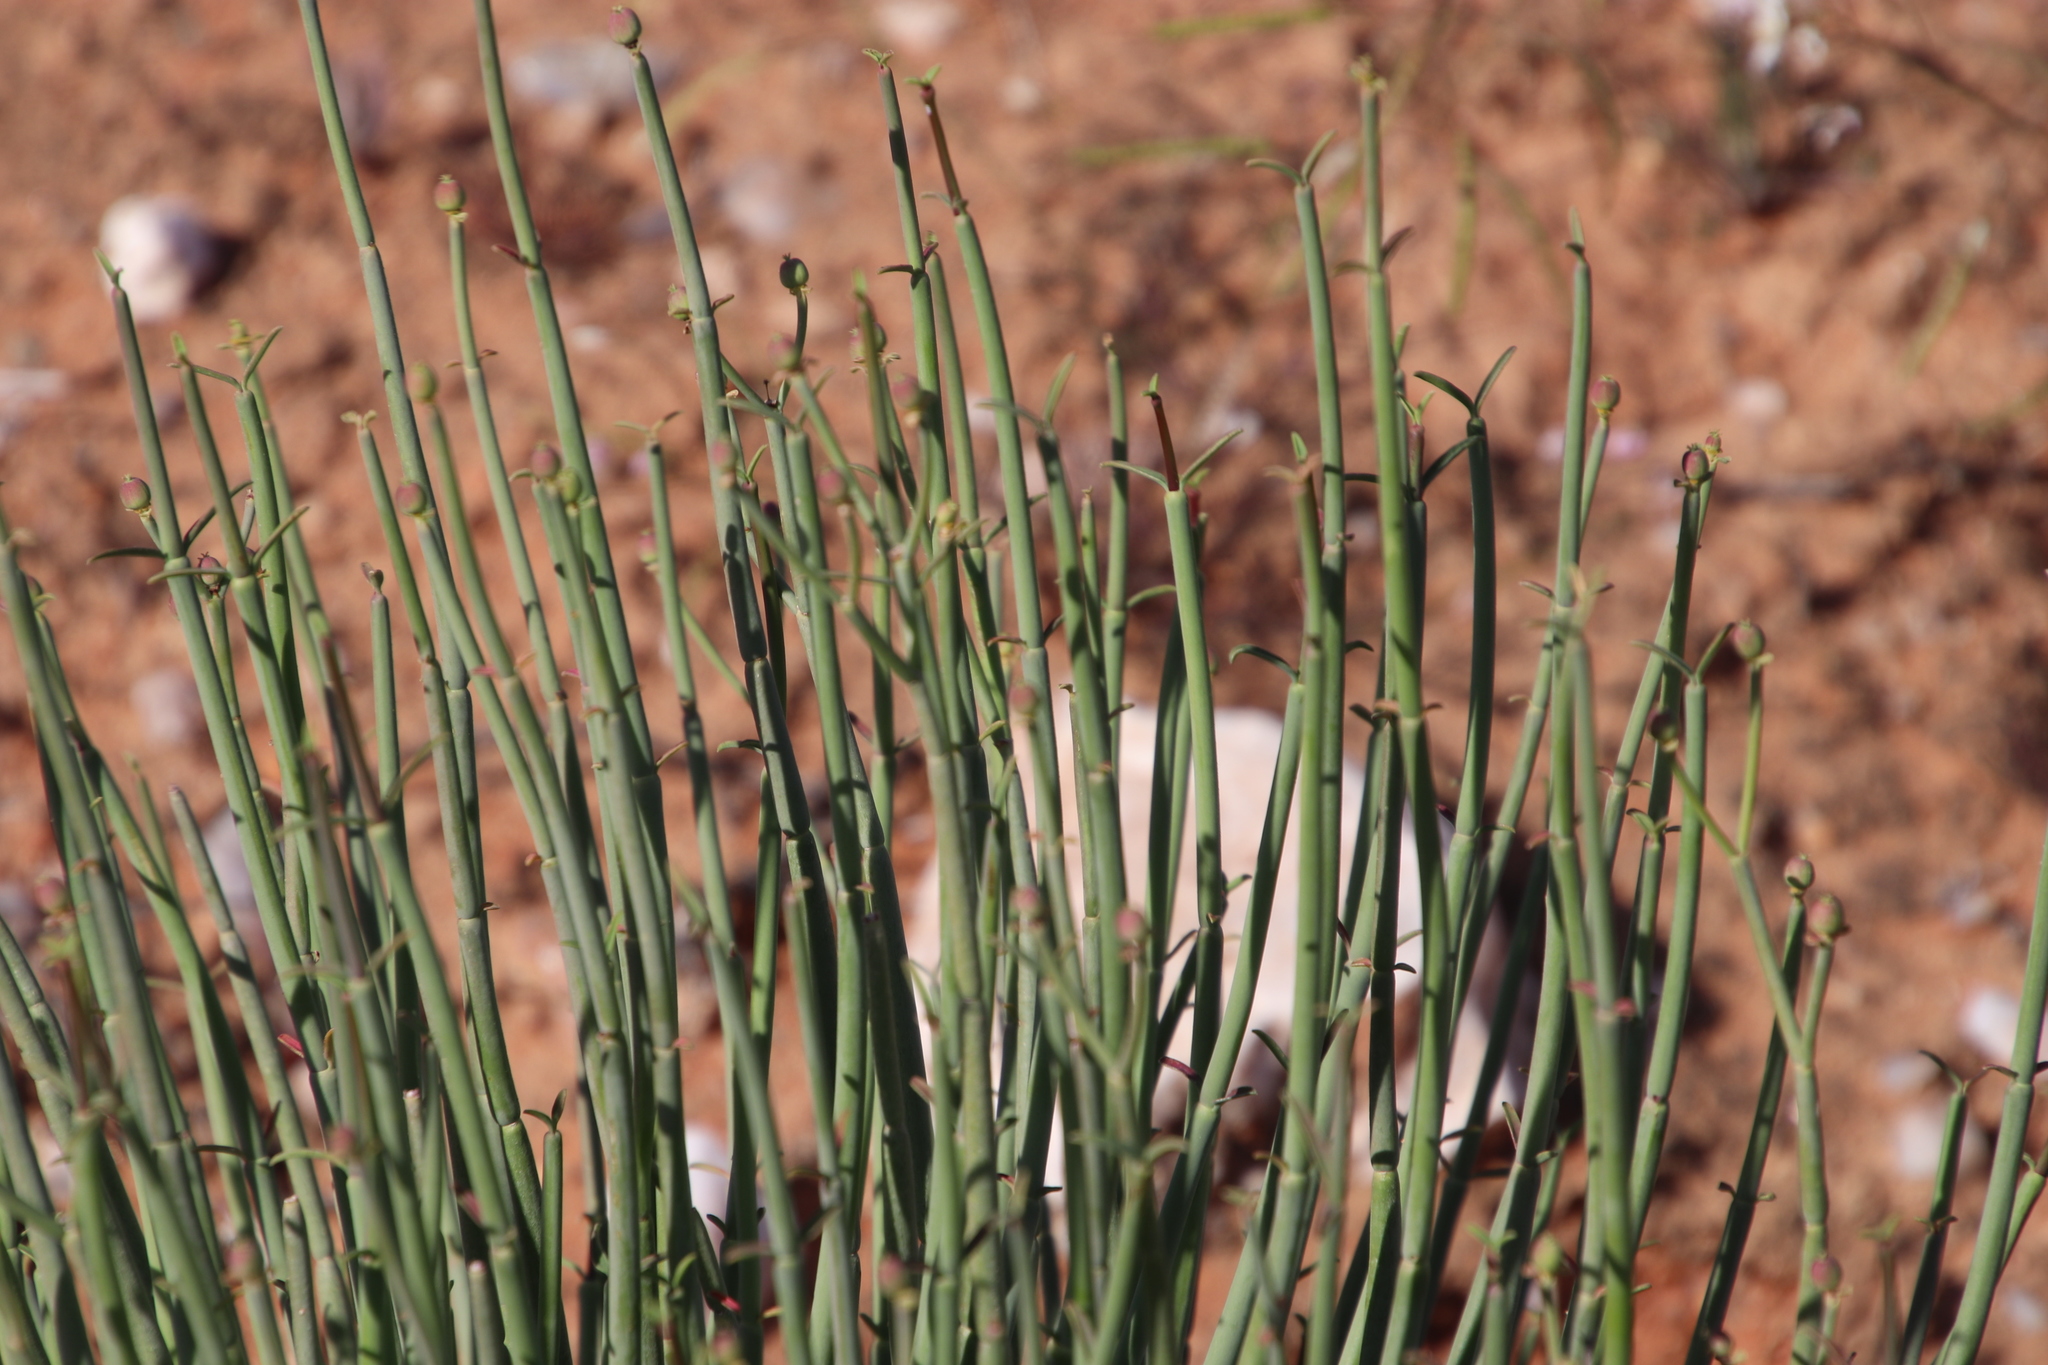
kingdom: Plantae
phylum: Tracheophyta
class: Magnoliopsida
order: Malpighiales
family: Euphorbiaceae
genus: Euphorbia
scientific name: Euphorbia ephedroides
